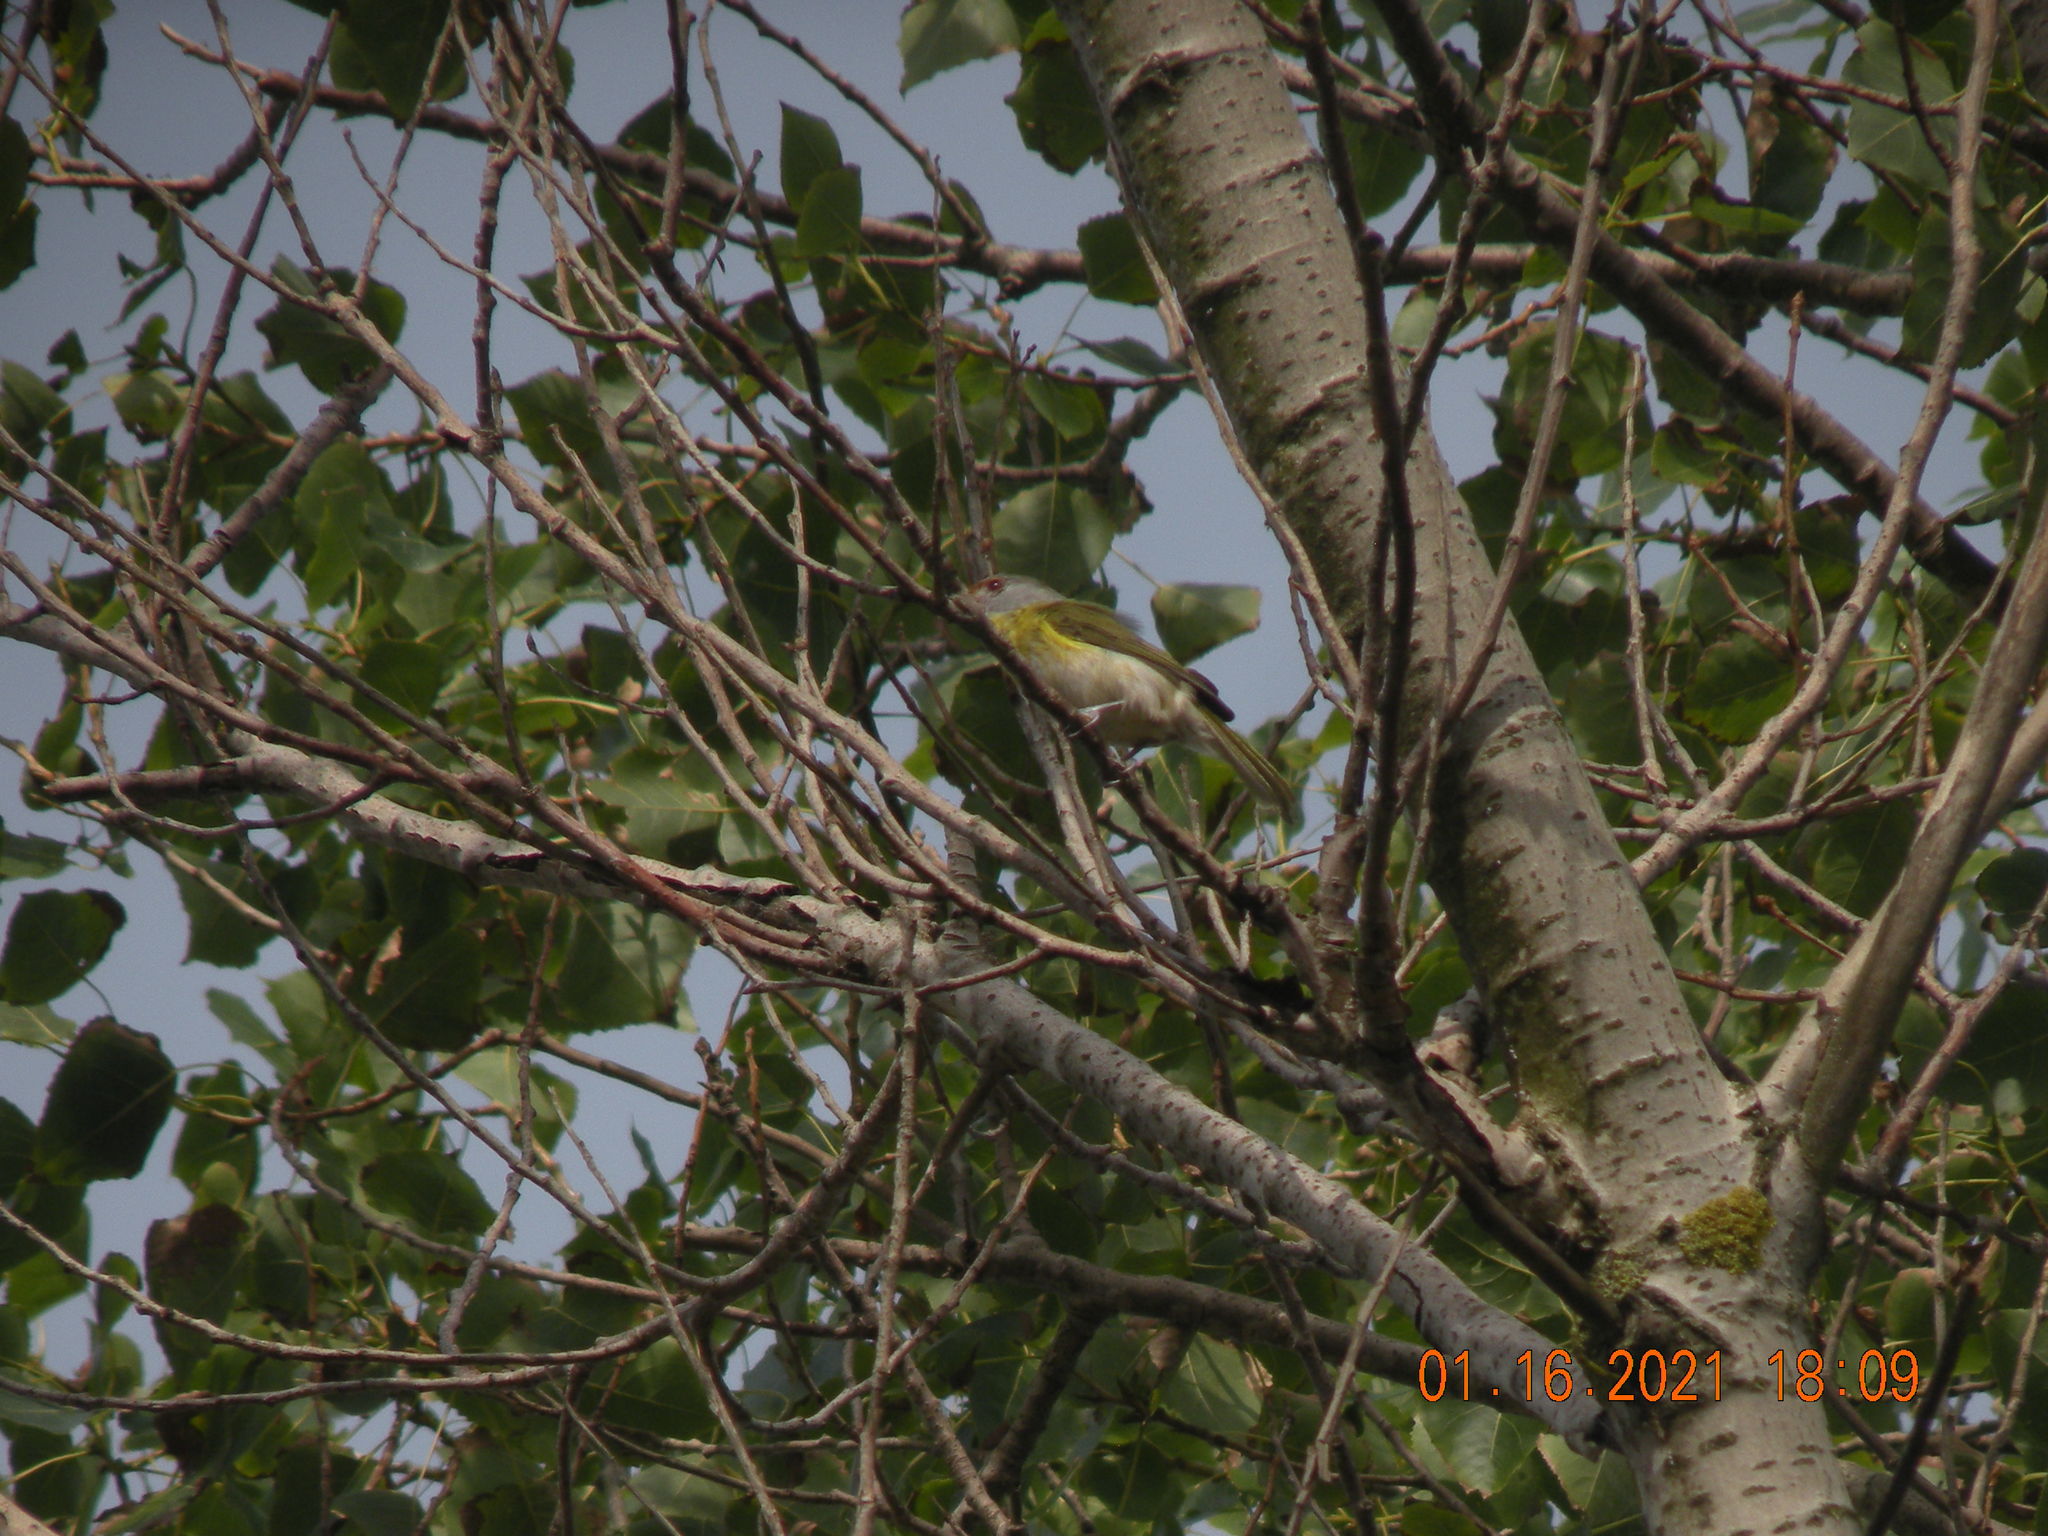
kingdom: Animalia
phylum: Chordata
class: Aves
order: Passeriformes
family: Vireonidae
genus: Cyclarhis
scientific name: Cyclarhis gujanensis
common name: Rufous-browed peppershrike
